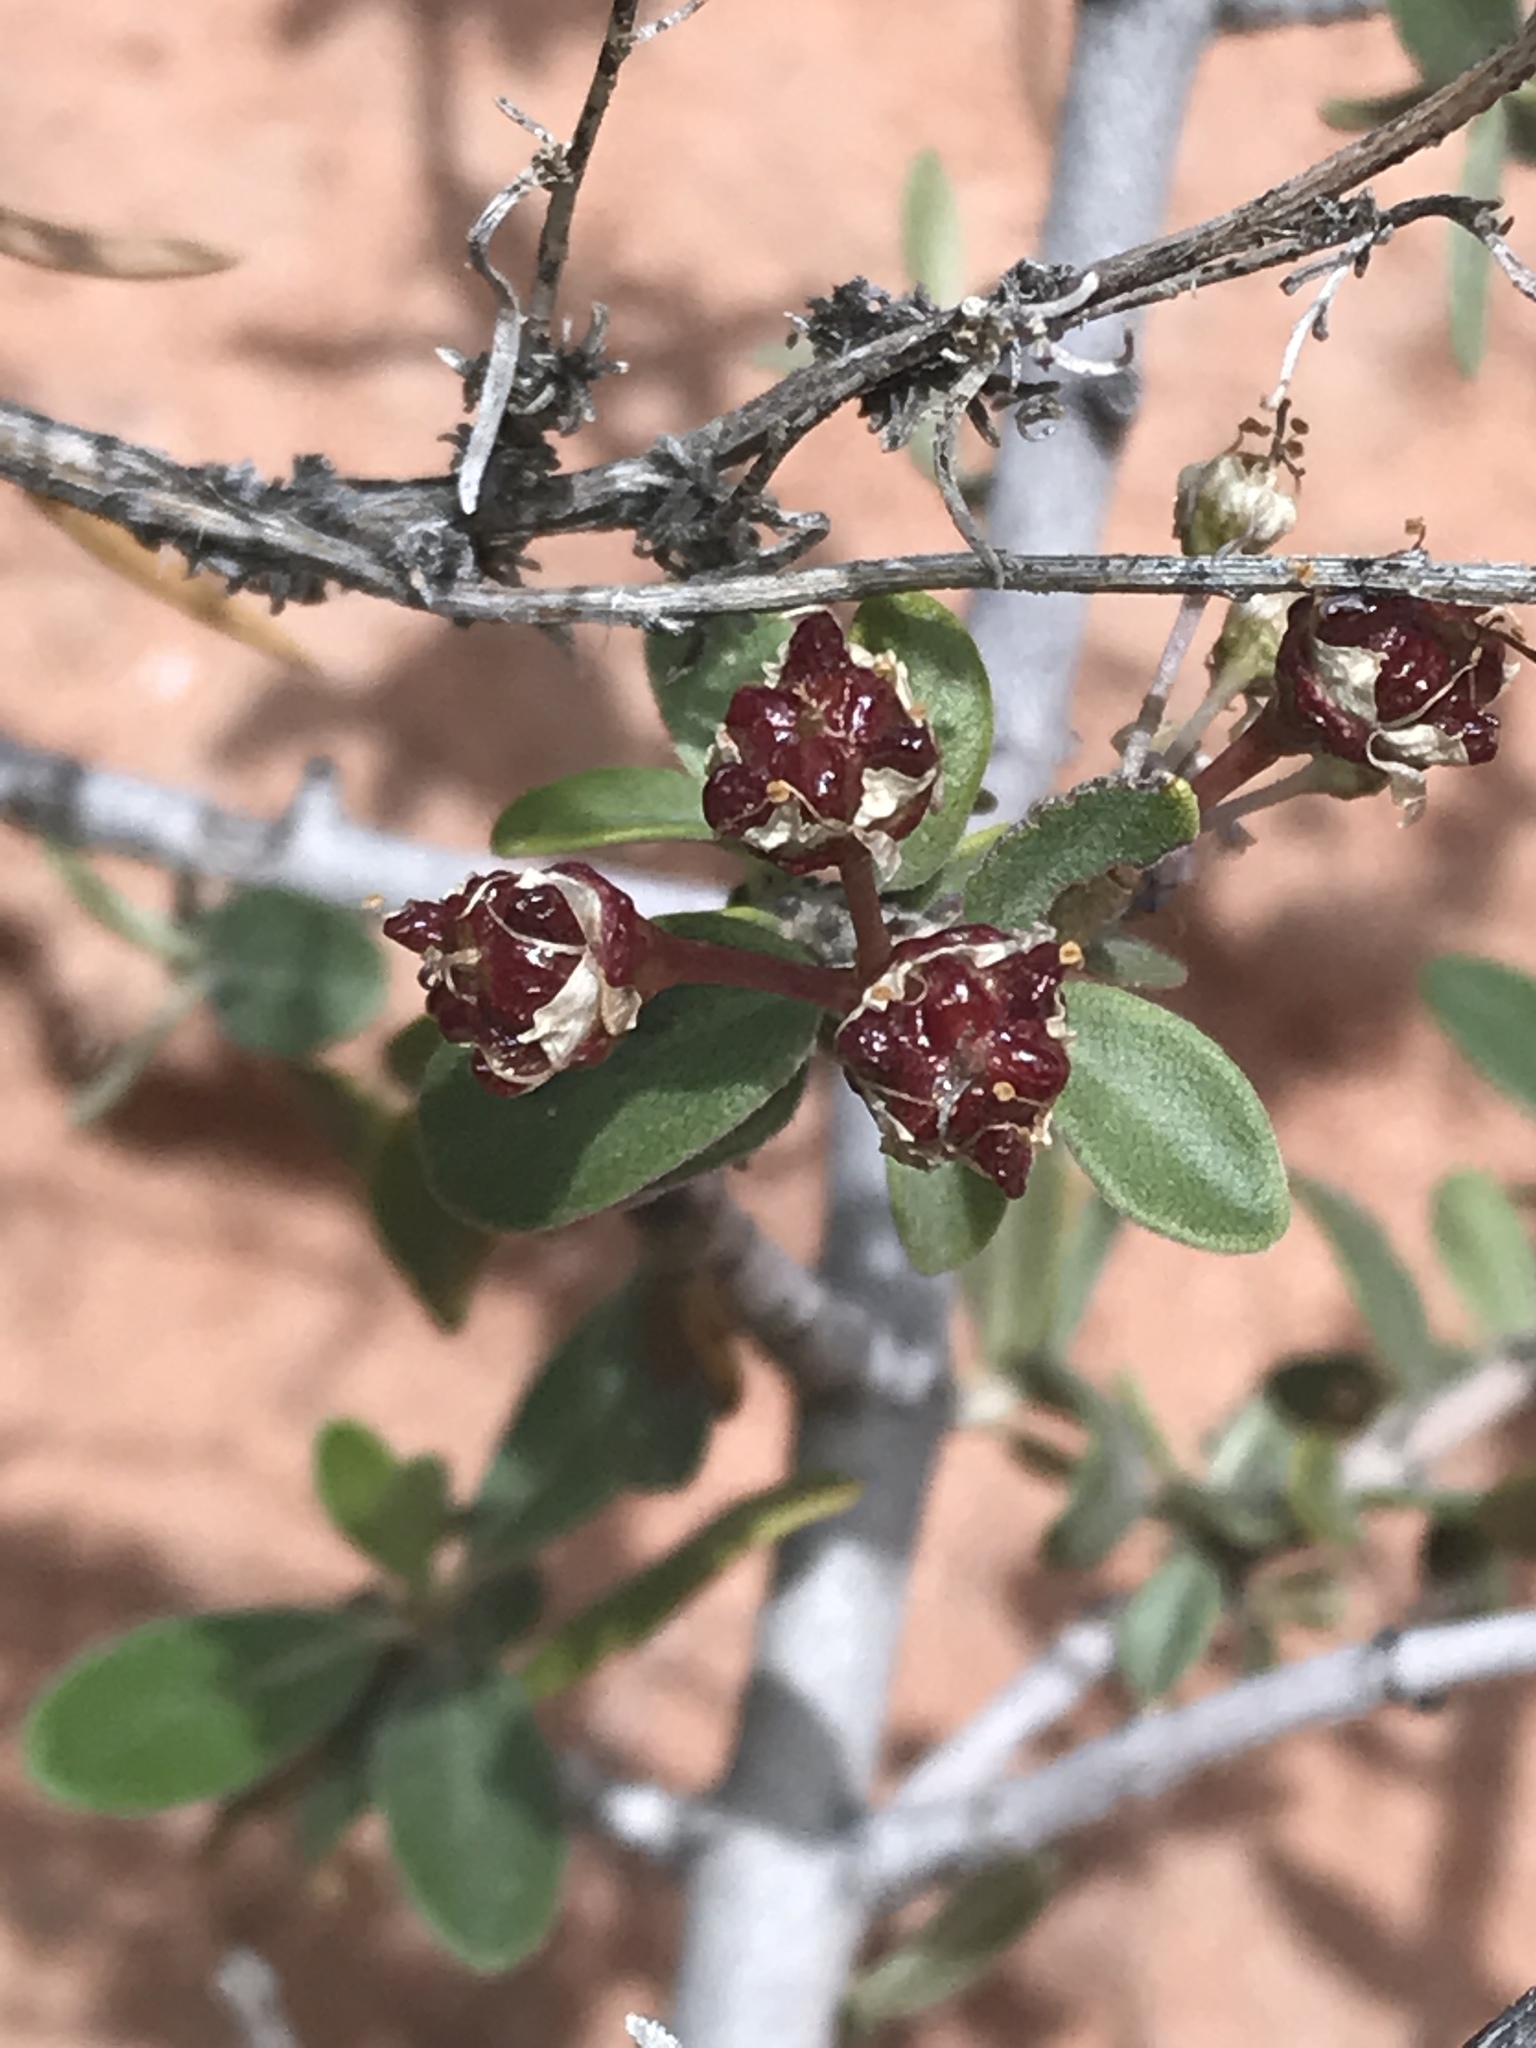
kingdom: Plantae
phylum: Tracheophyta
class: Magnoliopsida
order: Rosales
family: Rhamnaceae
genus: Ceanothus
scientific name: Ceanothus pauciflorus
